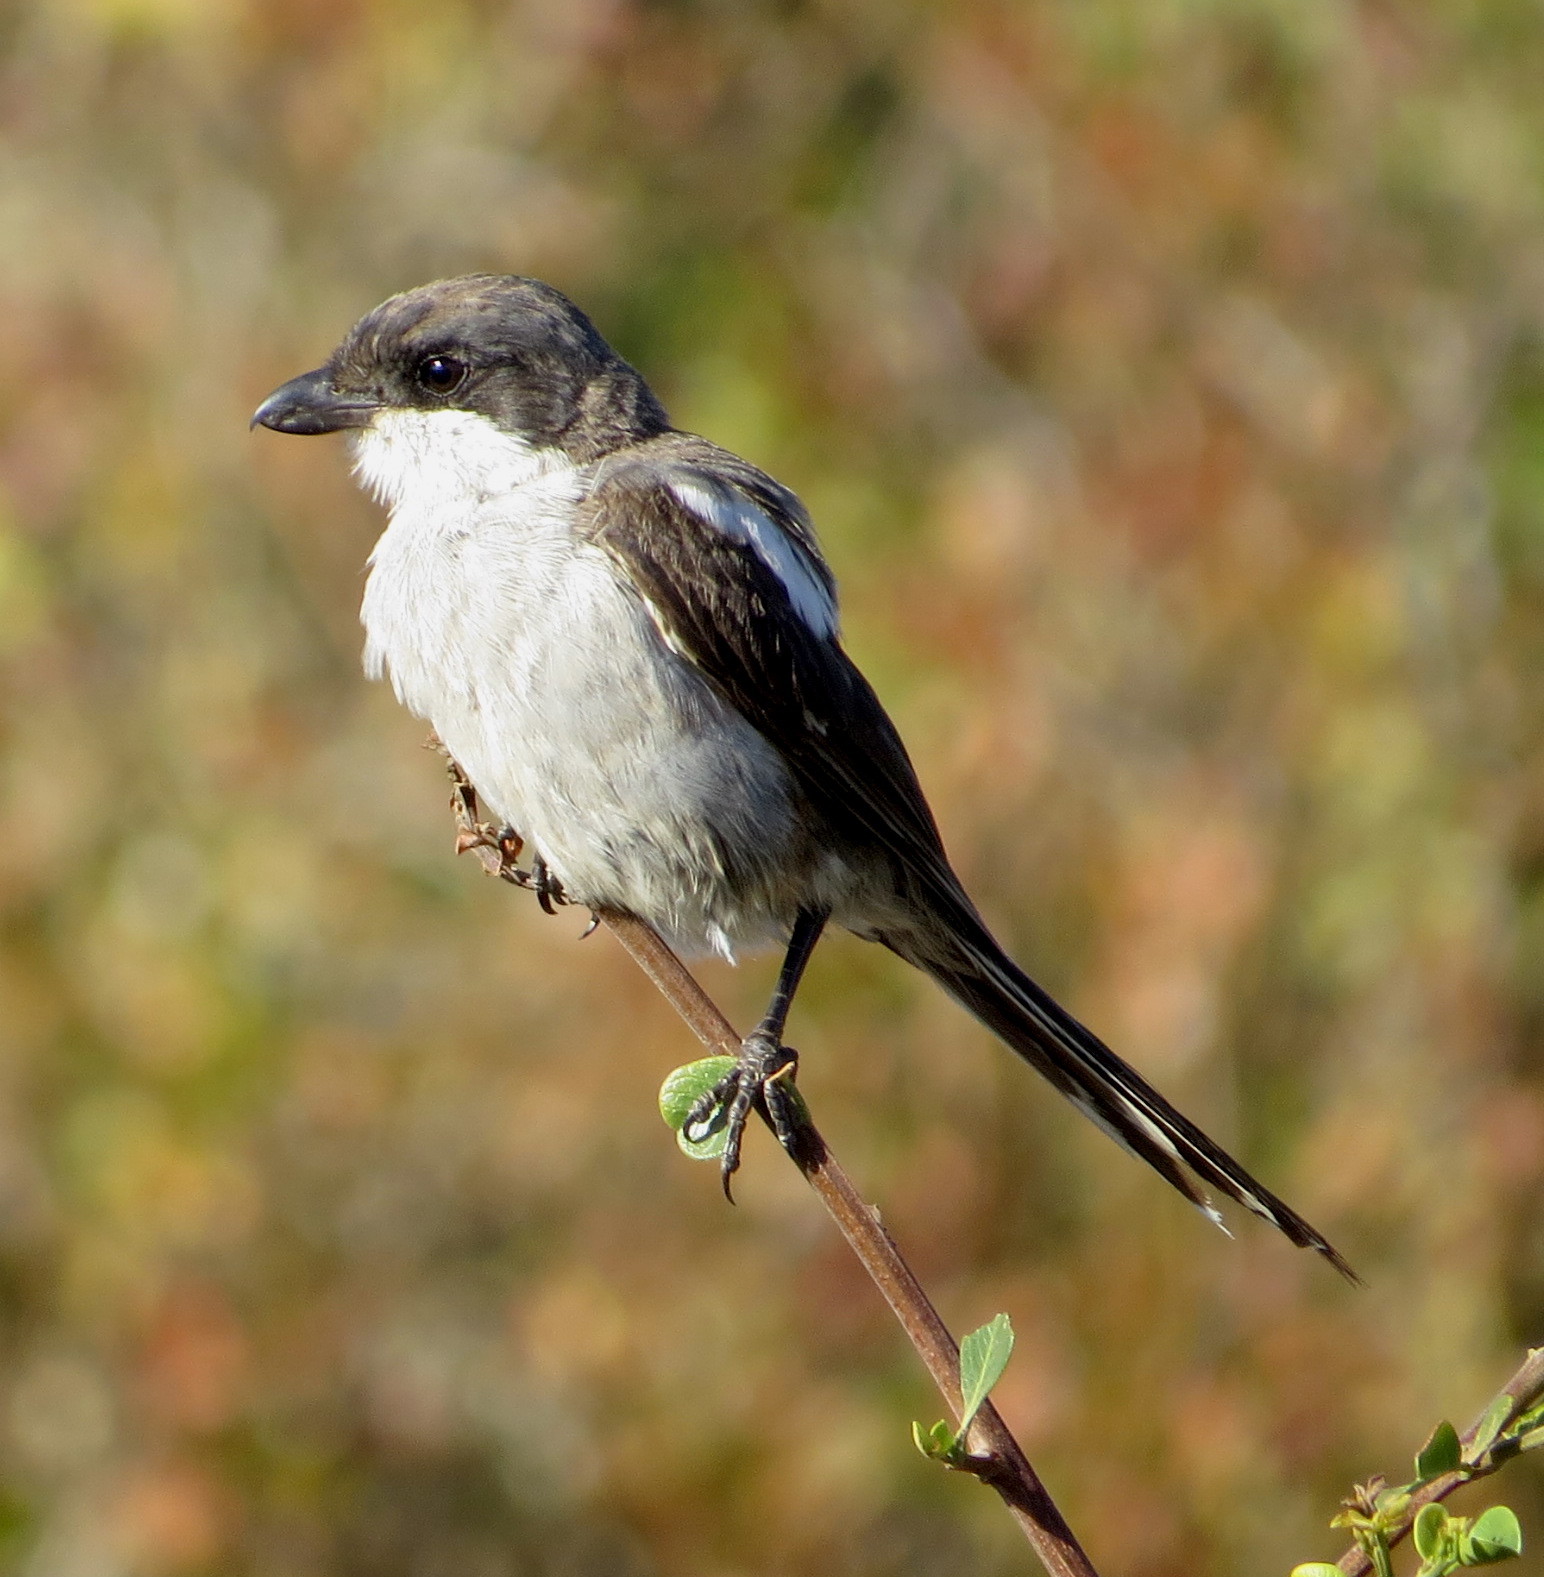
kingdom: Animalia
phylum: Chordata
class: Aves
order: Passeriformes
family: Laniidae
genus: Lanius
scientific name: Lanius collaris
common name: Southern fiscal
